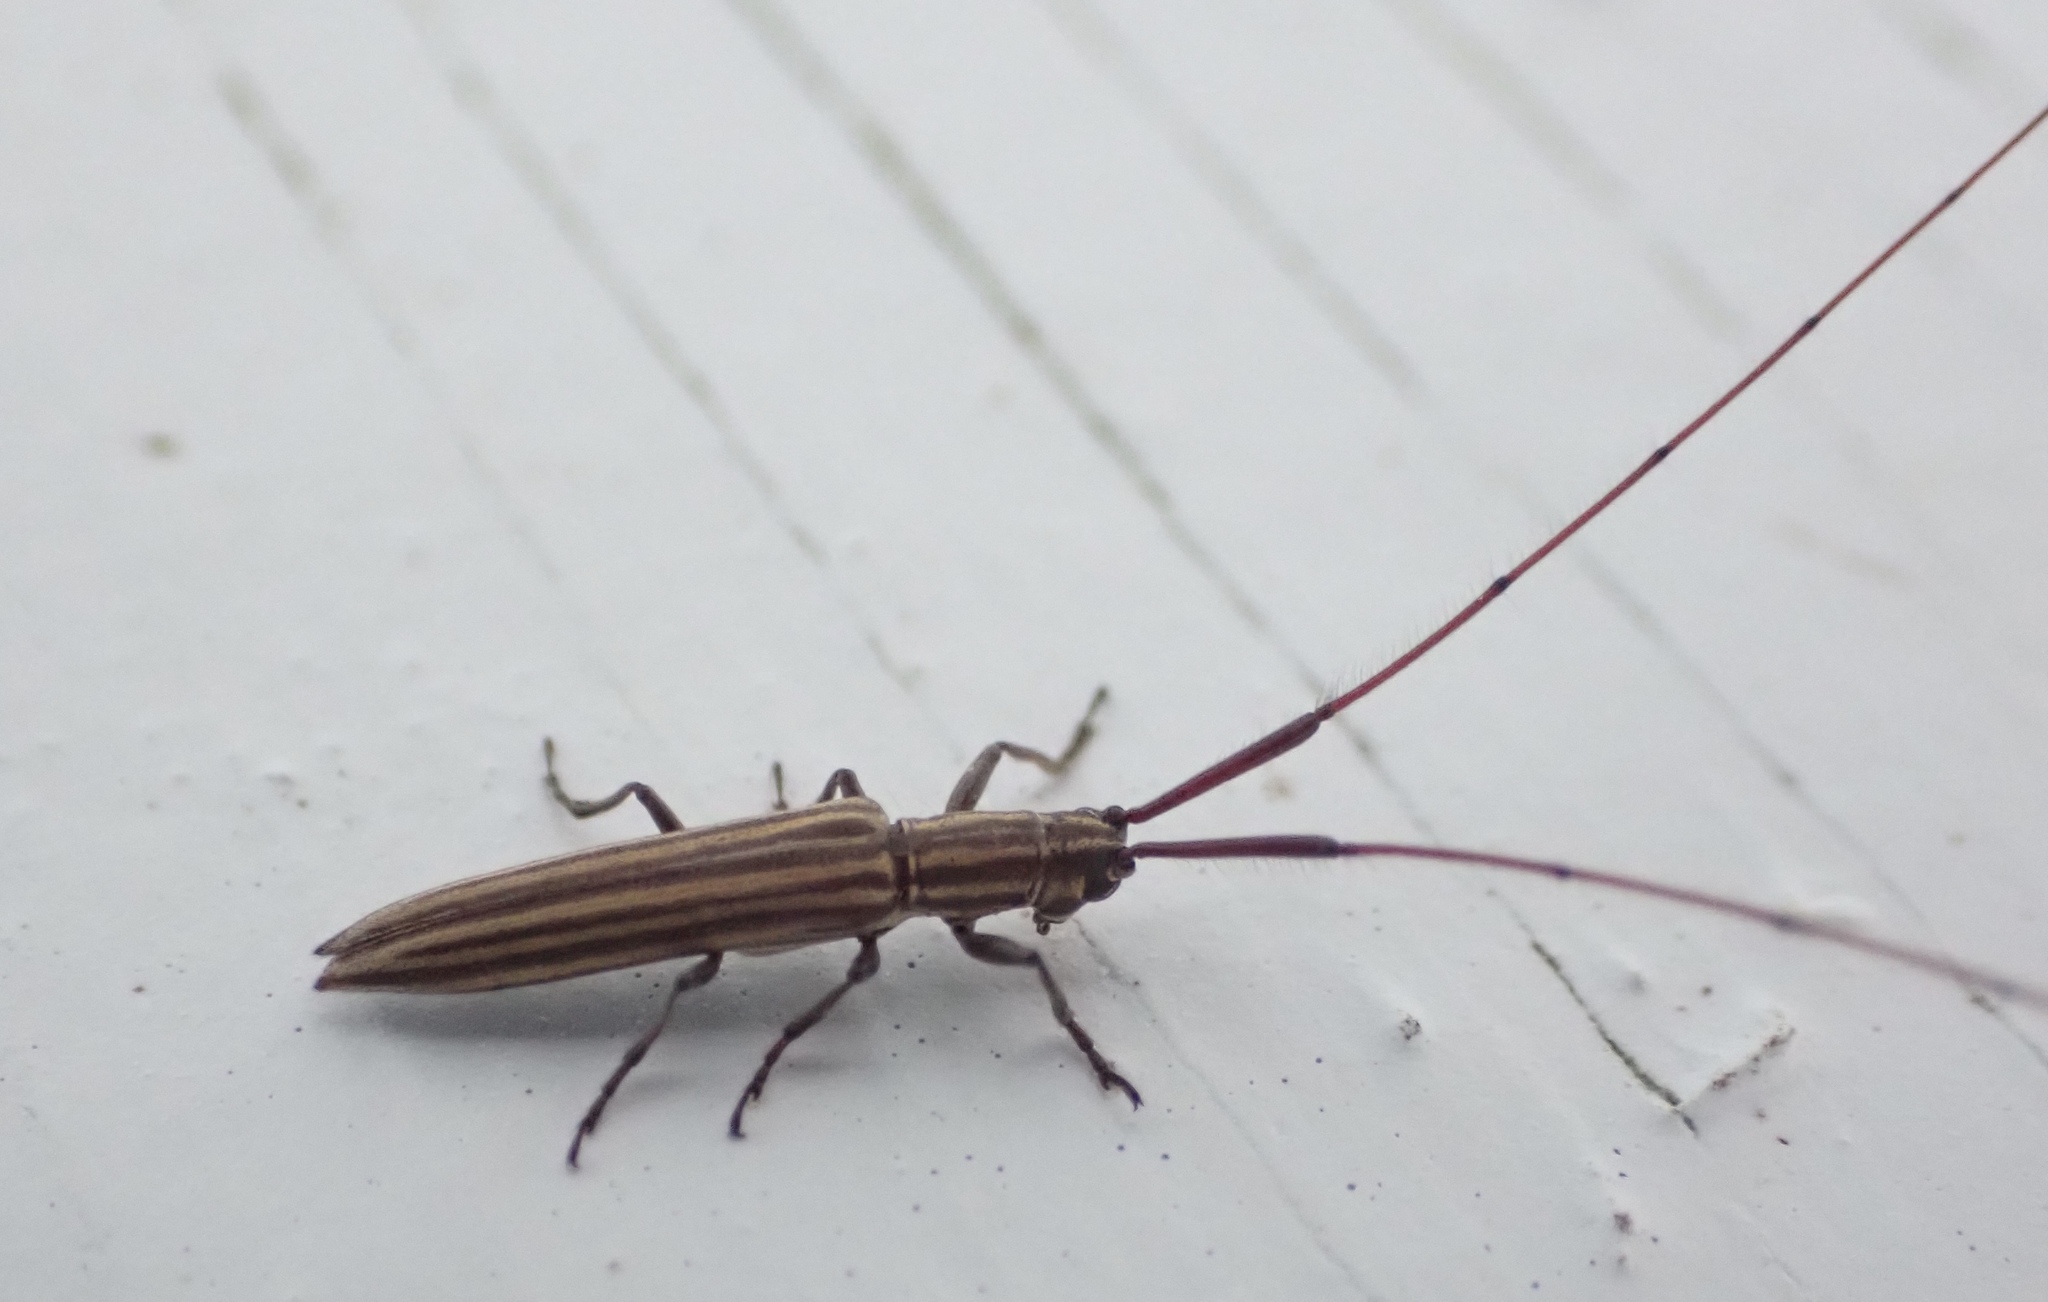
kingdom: Animalia
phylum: Arthropoda
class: Insecta
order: Coleoptera
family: Cerambycidae
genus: Hippopsis
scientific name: Hippopsis
